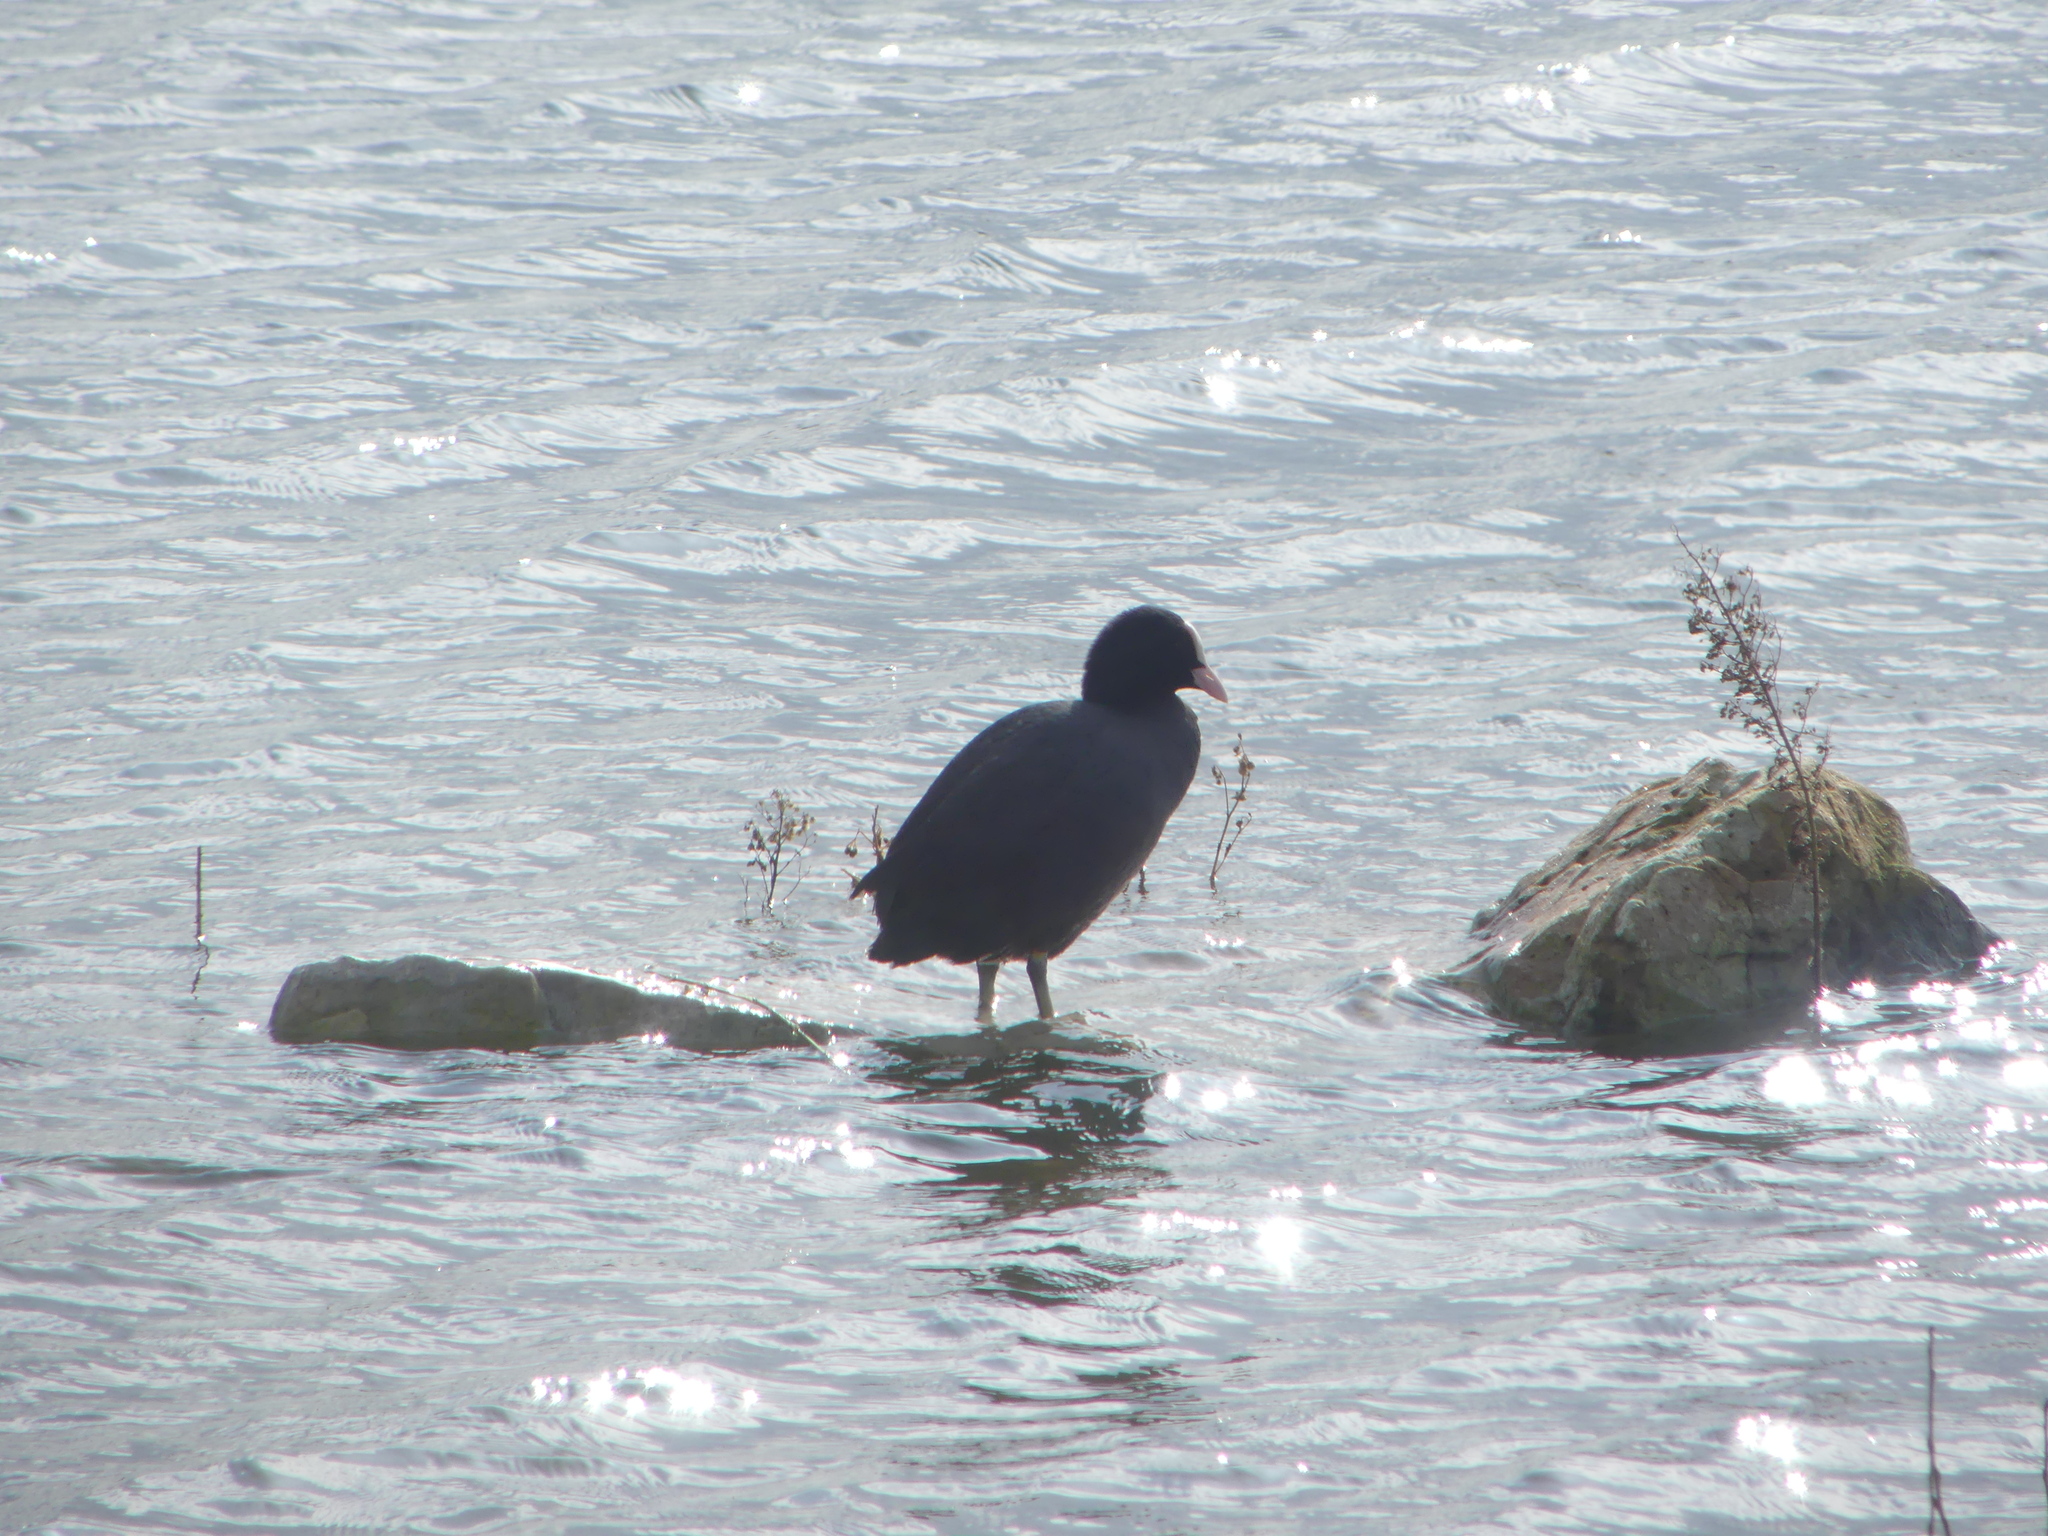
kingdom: Animalia
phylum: Chordata
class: Aves
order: Gruiformes
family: Rallidae
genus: Fulica
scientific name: Fulica atra
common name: Eurasian coot
